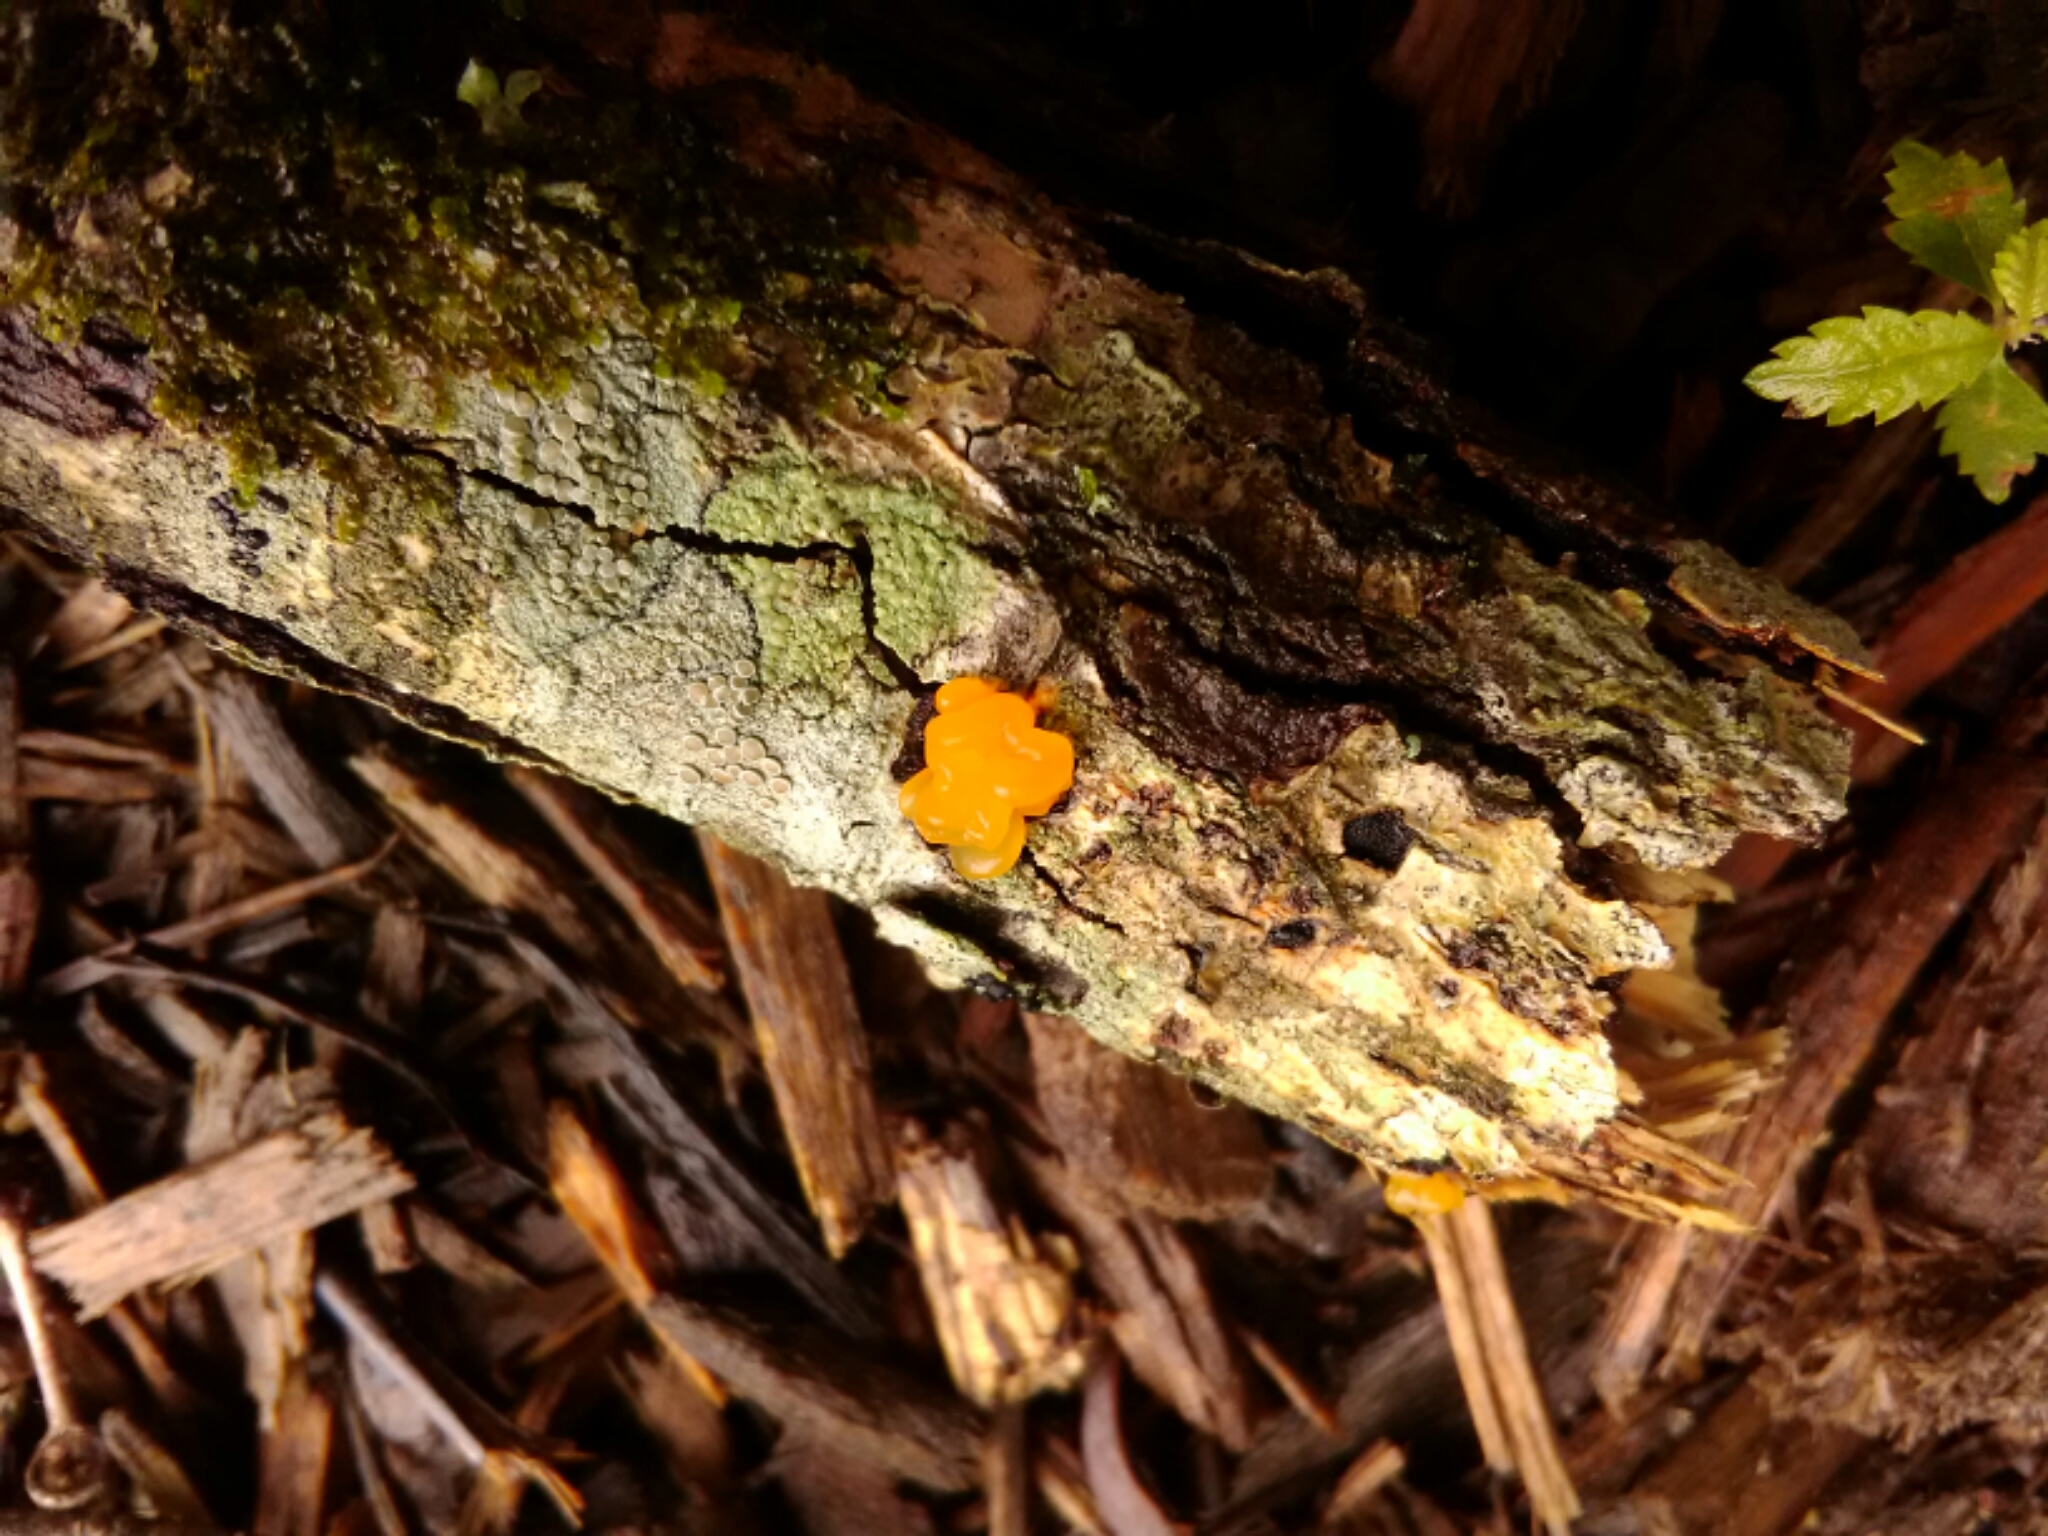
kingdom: Fungi
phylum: Basidiomycota
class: Tremellomycetes
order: Tremellales
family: Tremellaceae
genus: Tremella
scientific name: Tremella mesenterica
